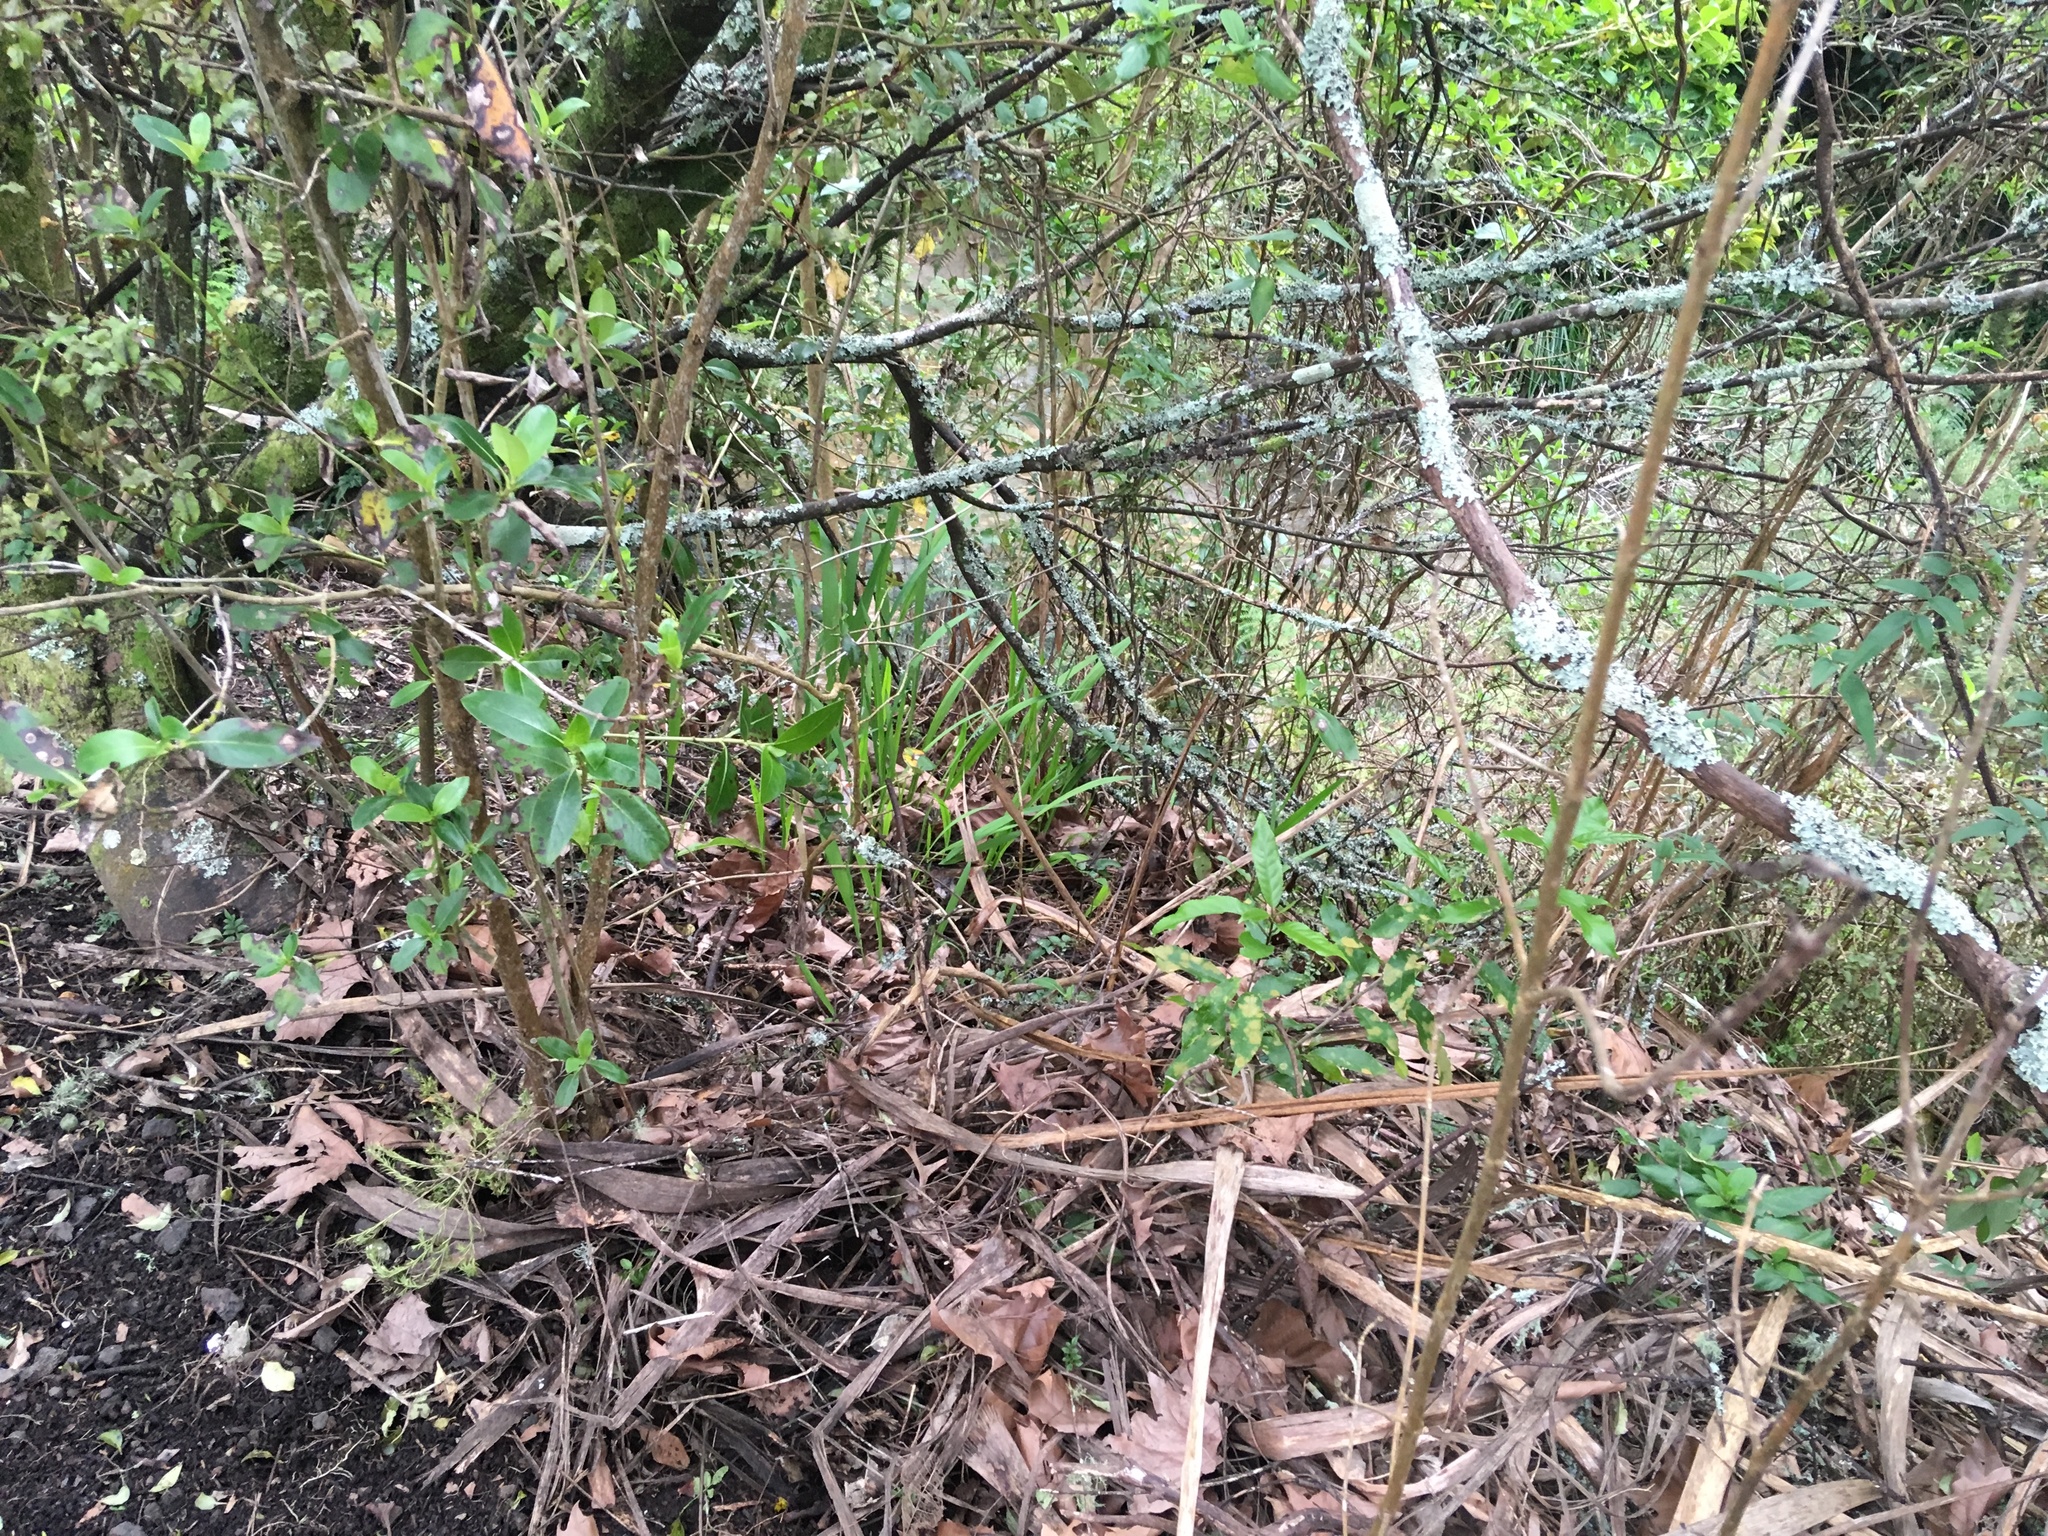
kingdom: Plantae
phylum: Tracheophyta
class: Magnoliopsida
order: Lamiales
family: Oleaceae
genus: Jasminum
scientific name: Jasminum polyanthum
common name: Pink jasmine
